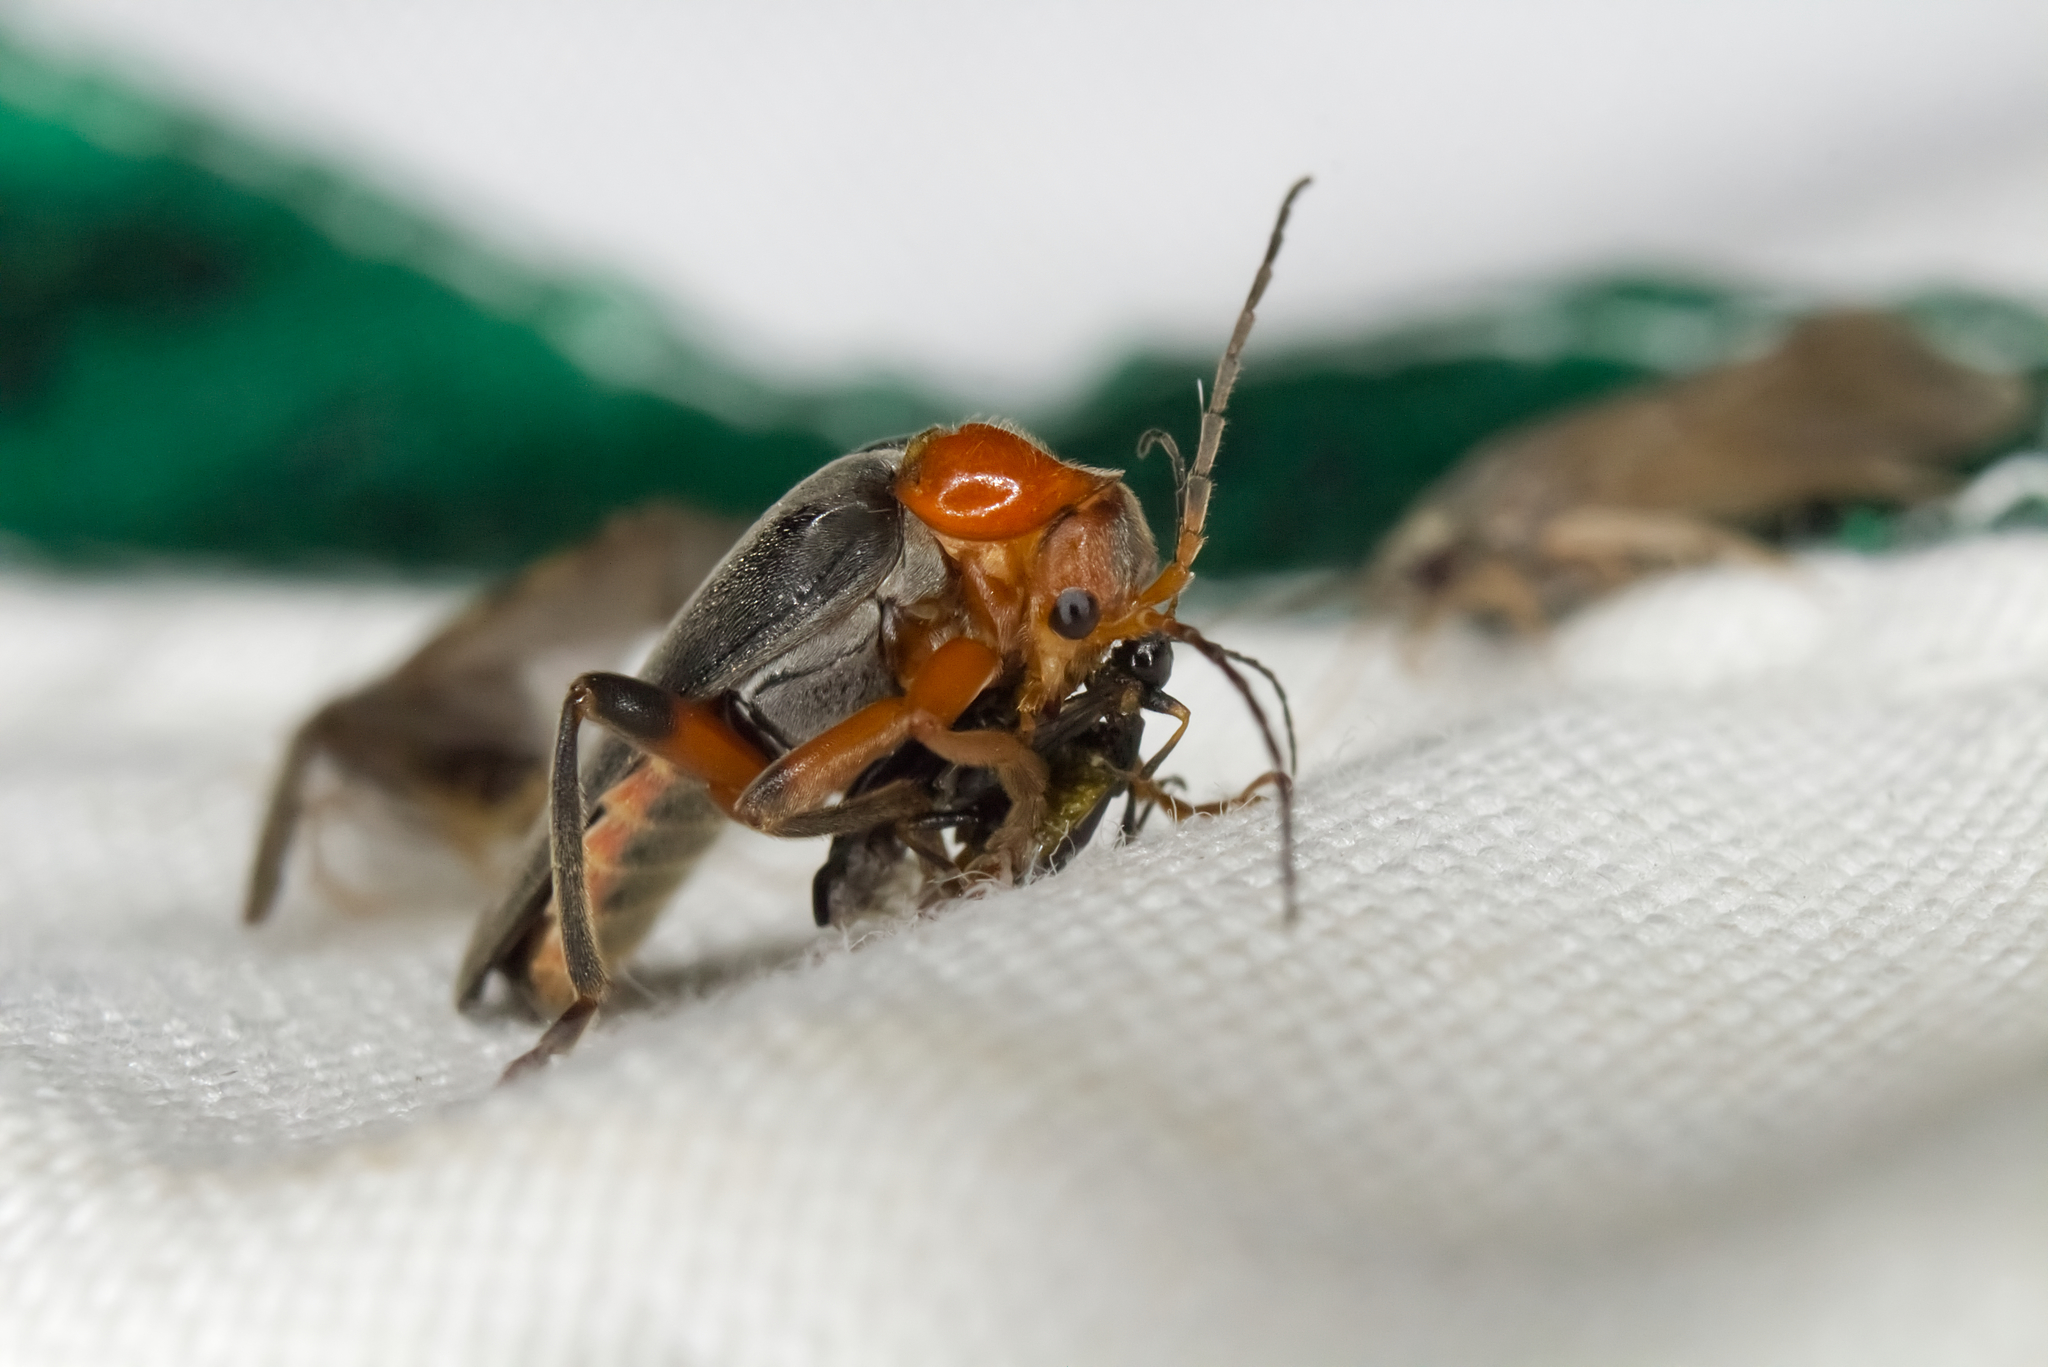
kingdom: Animalia
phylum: Arthropoda
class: Insecta
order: Coleoptera
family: Cantharidae
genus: Cantharis
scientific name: Cantharis livida
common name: Livid soldier beetle
